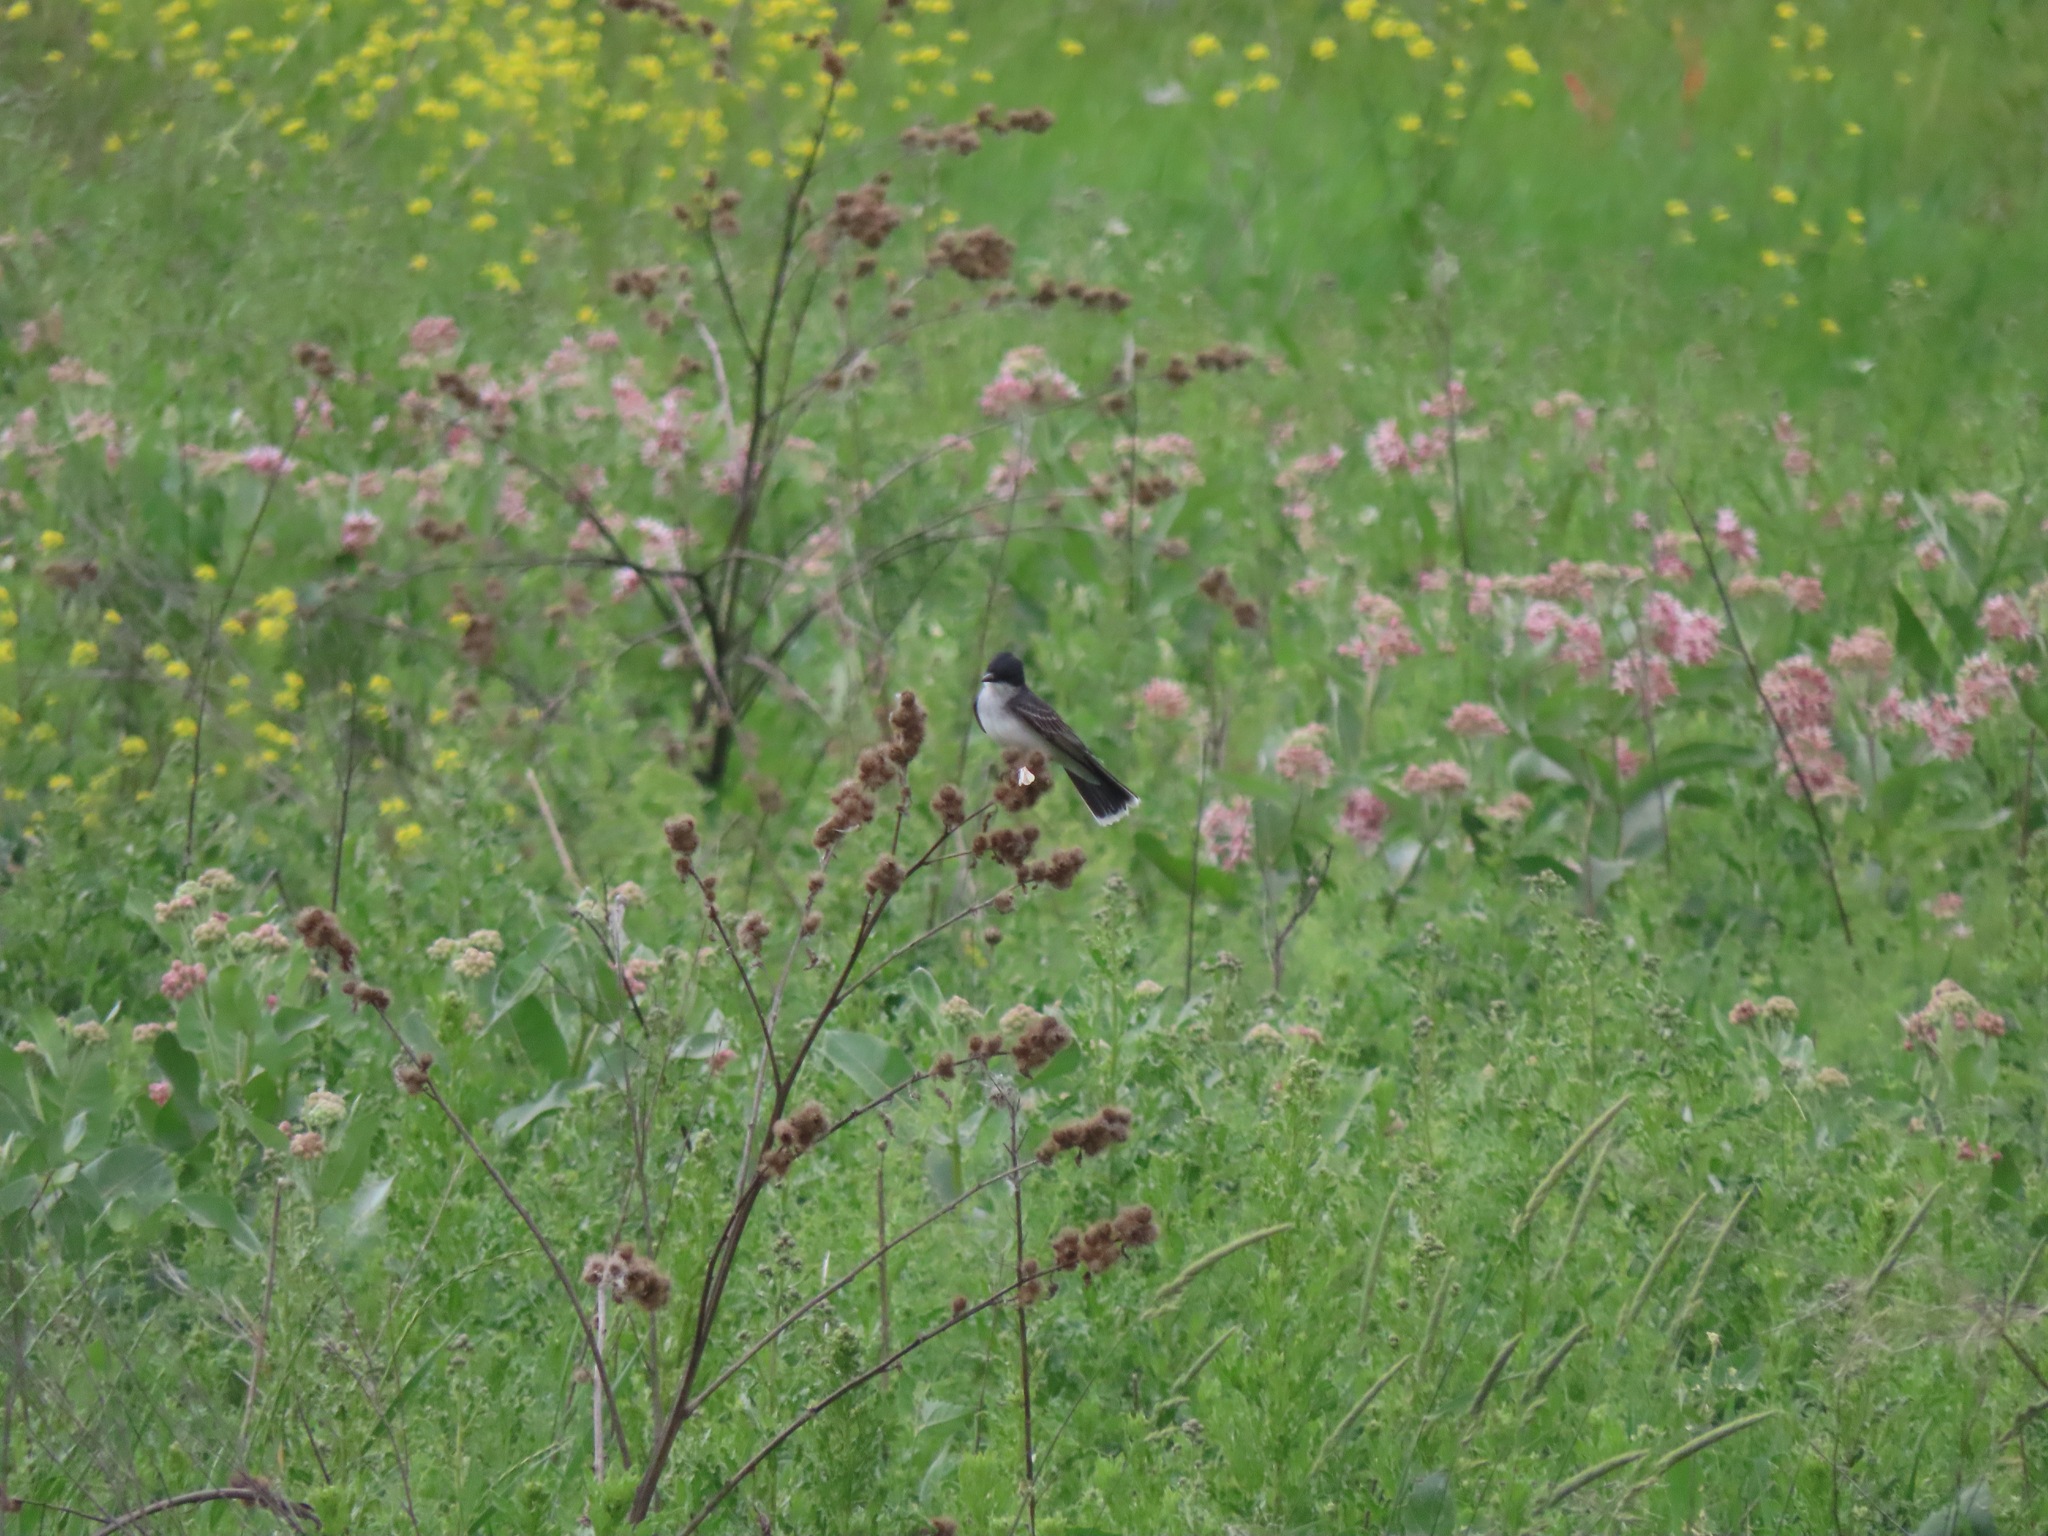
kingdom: Animalia
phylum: Chordata
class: Aves
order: Passeriformes
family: Tyrannidae
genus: Tyrannus
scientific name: Tyrannus tyrannus
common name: Eastern kingbird
